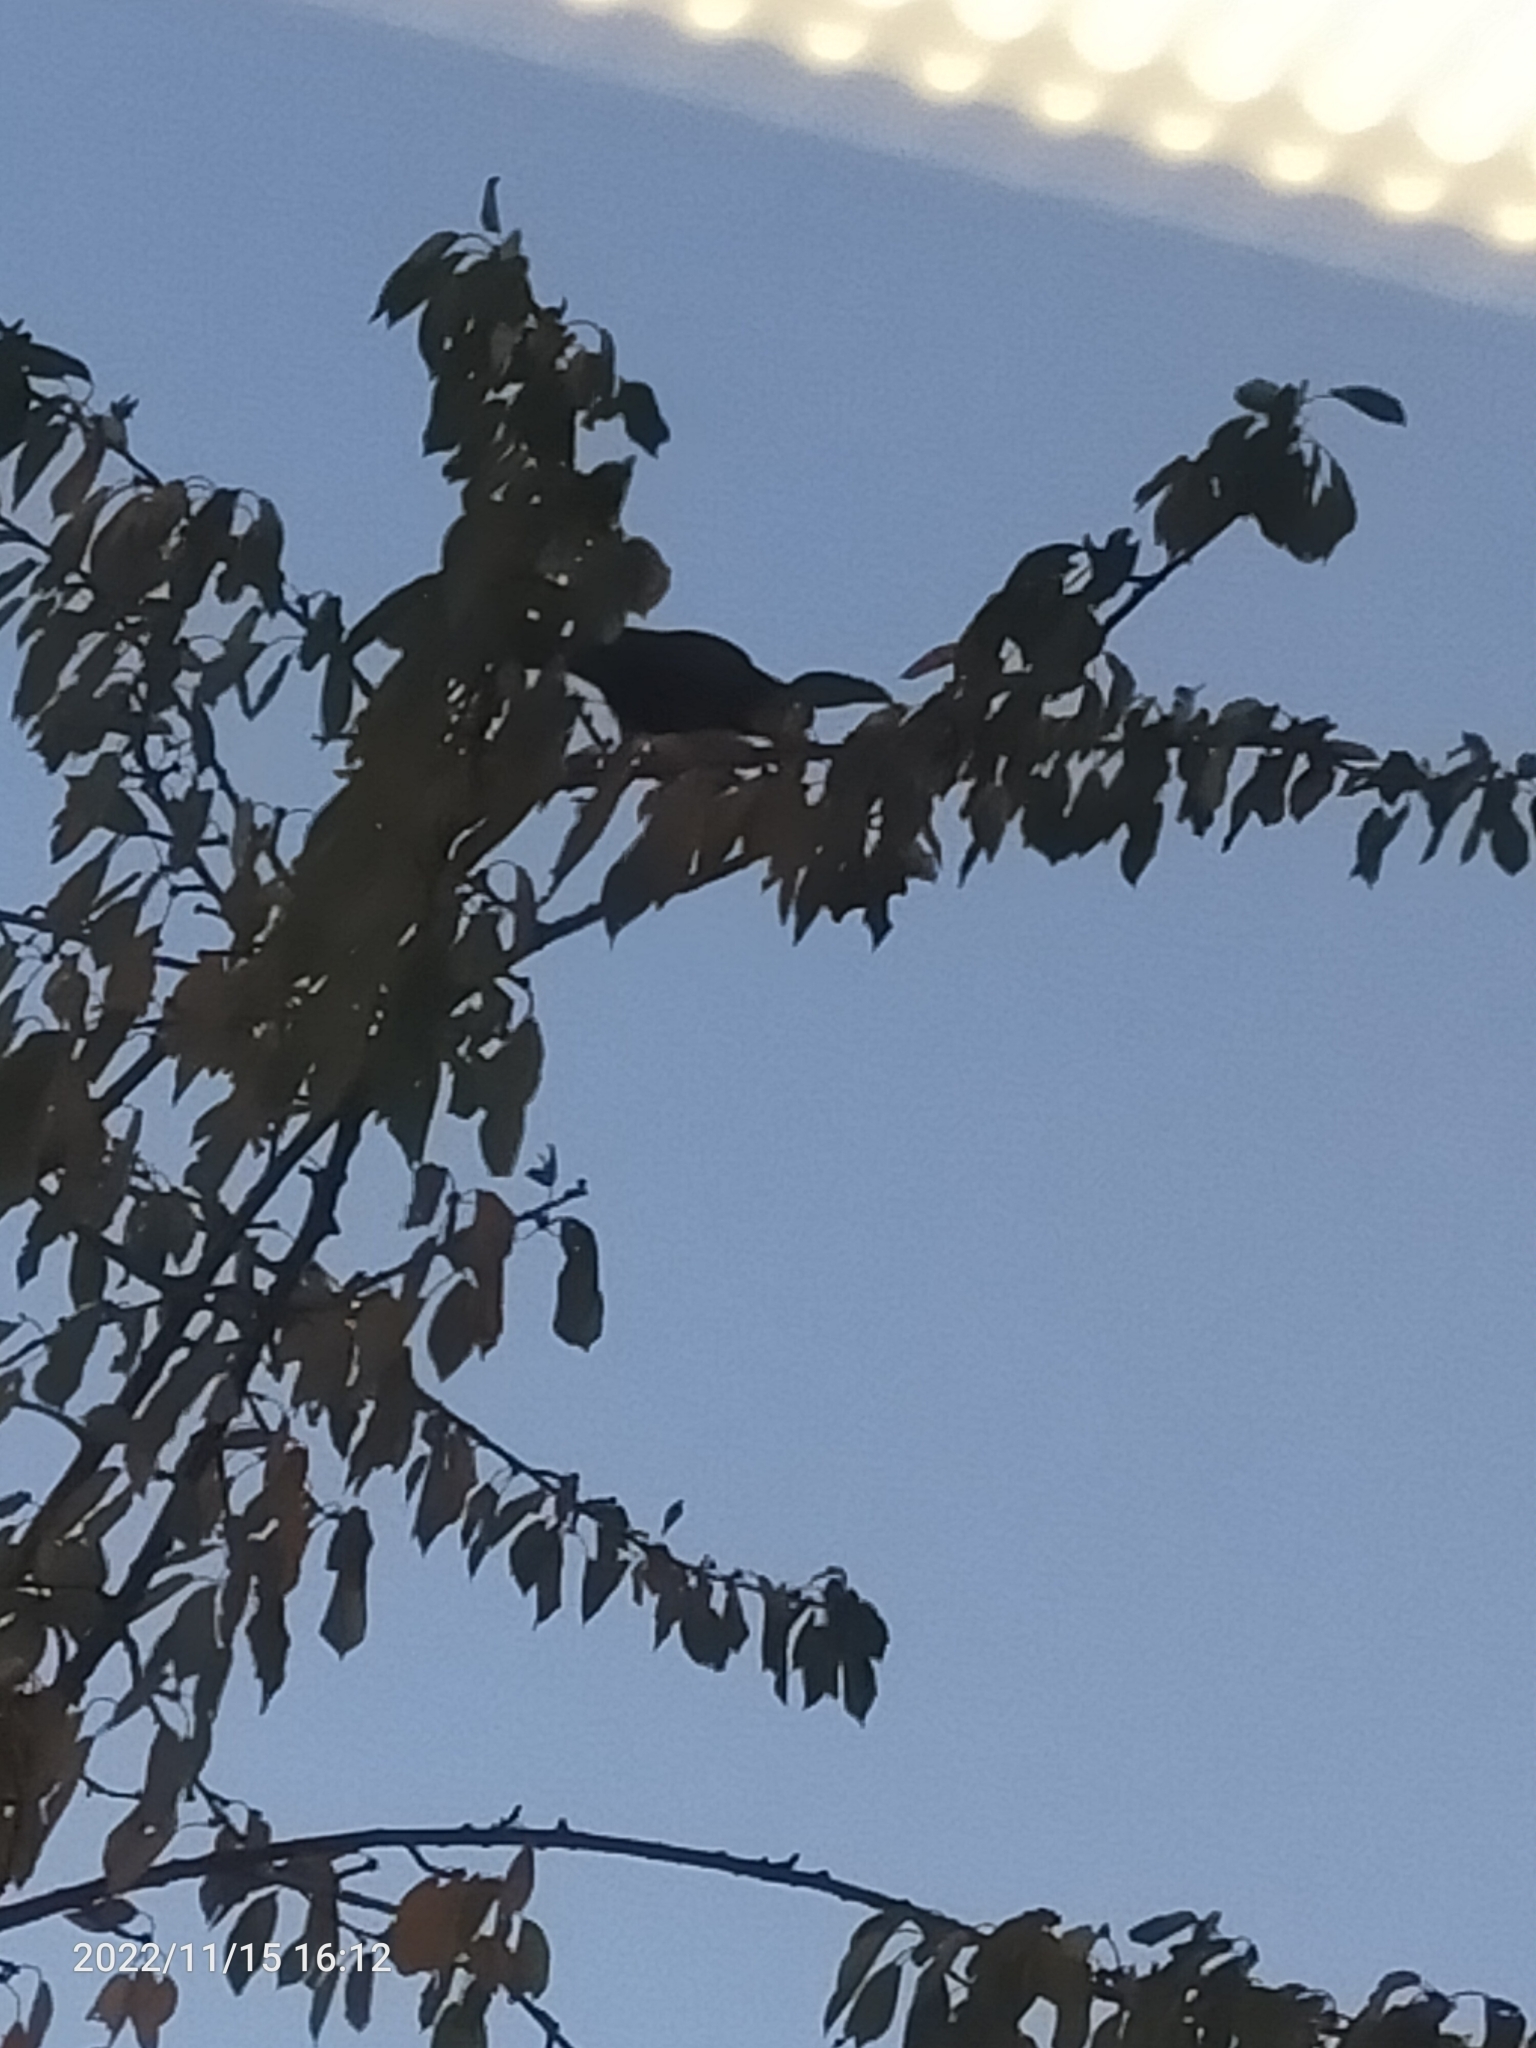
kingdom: Animalia
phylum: Chordata
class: Aves
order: Passeriformes
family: Corvidae
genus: Corvus
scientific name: Corvus corone
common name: Carrion crow
